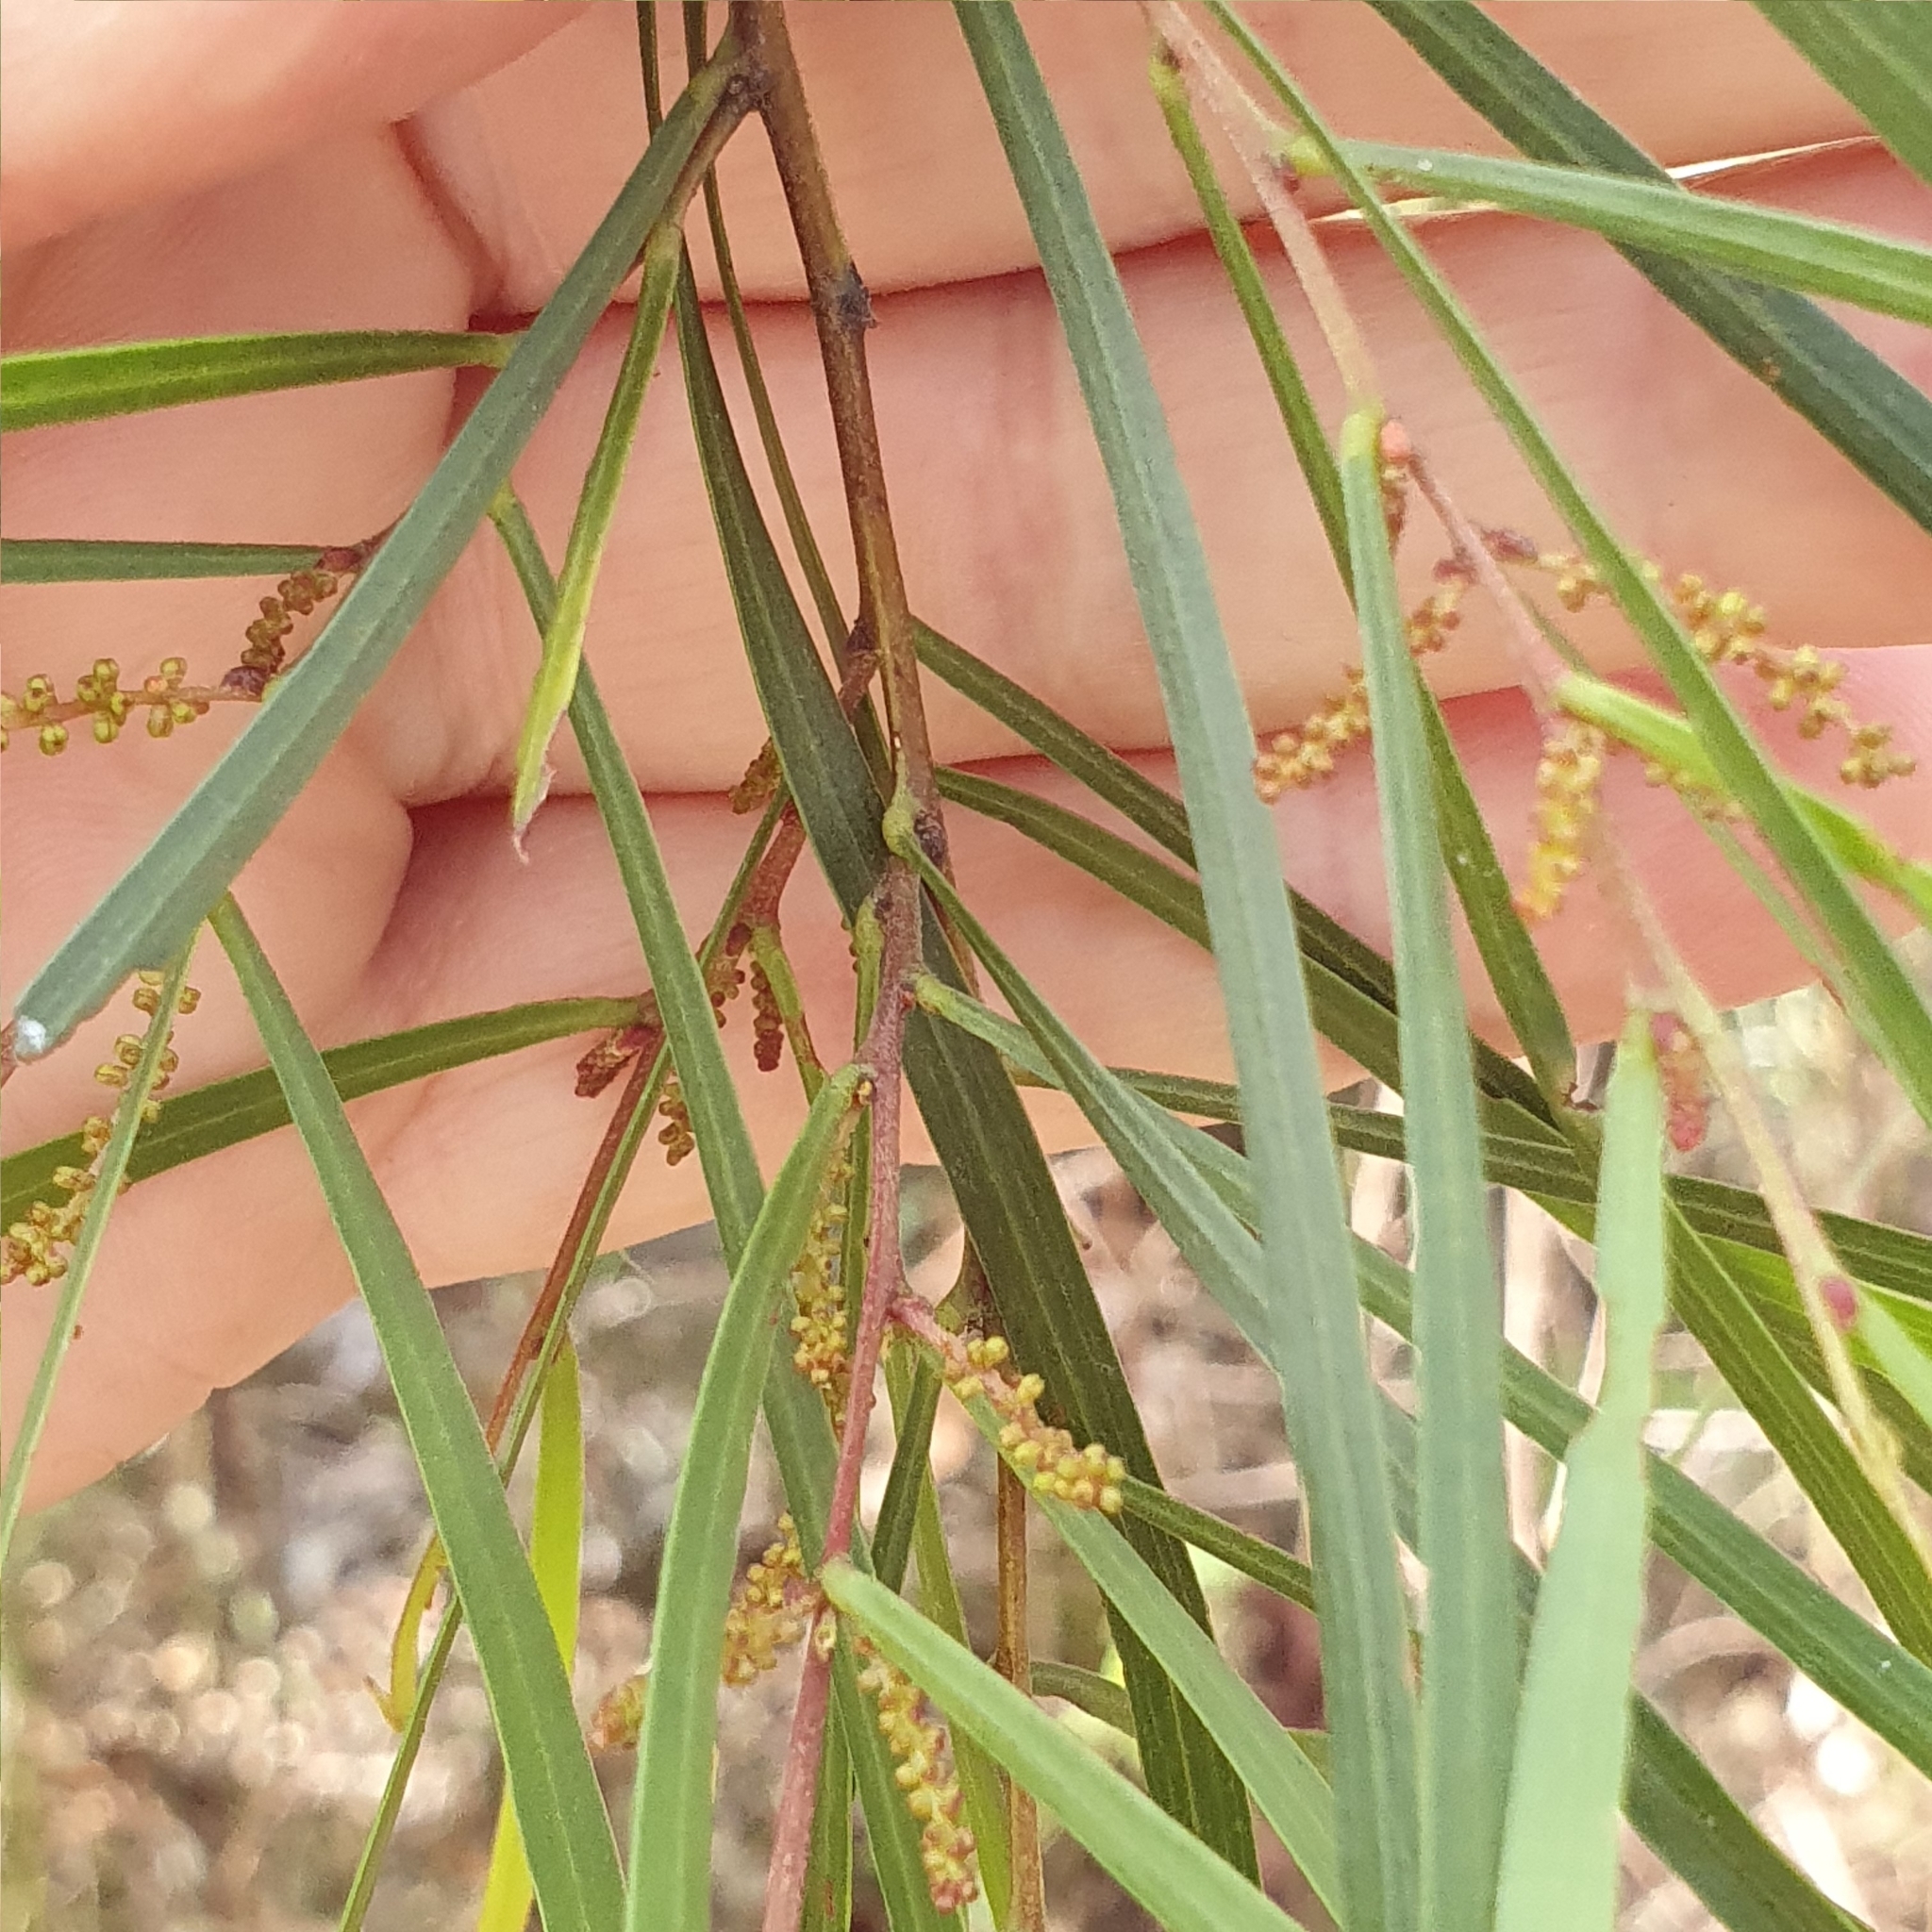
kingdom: Plantae
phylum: Tracheophyta
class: Magnoliopsida
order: Fabales
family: Fabaceae
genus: Acacia
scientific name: Acacia longissima
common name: Longleaf wattle
